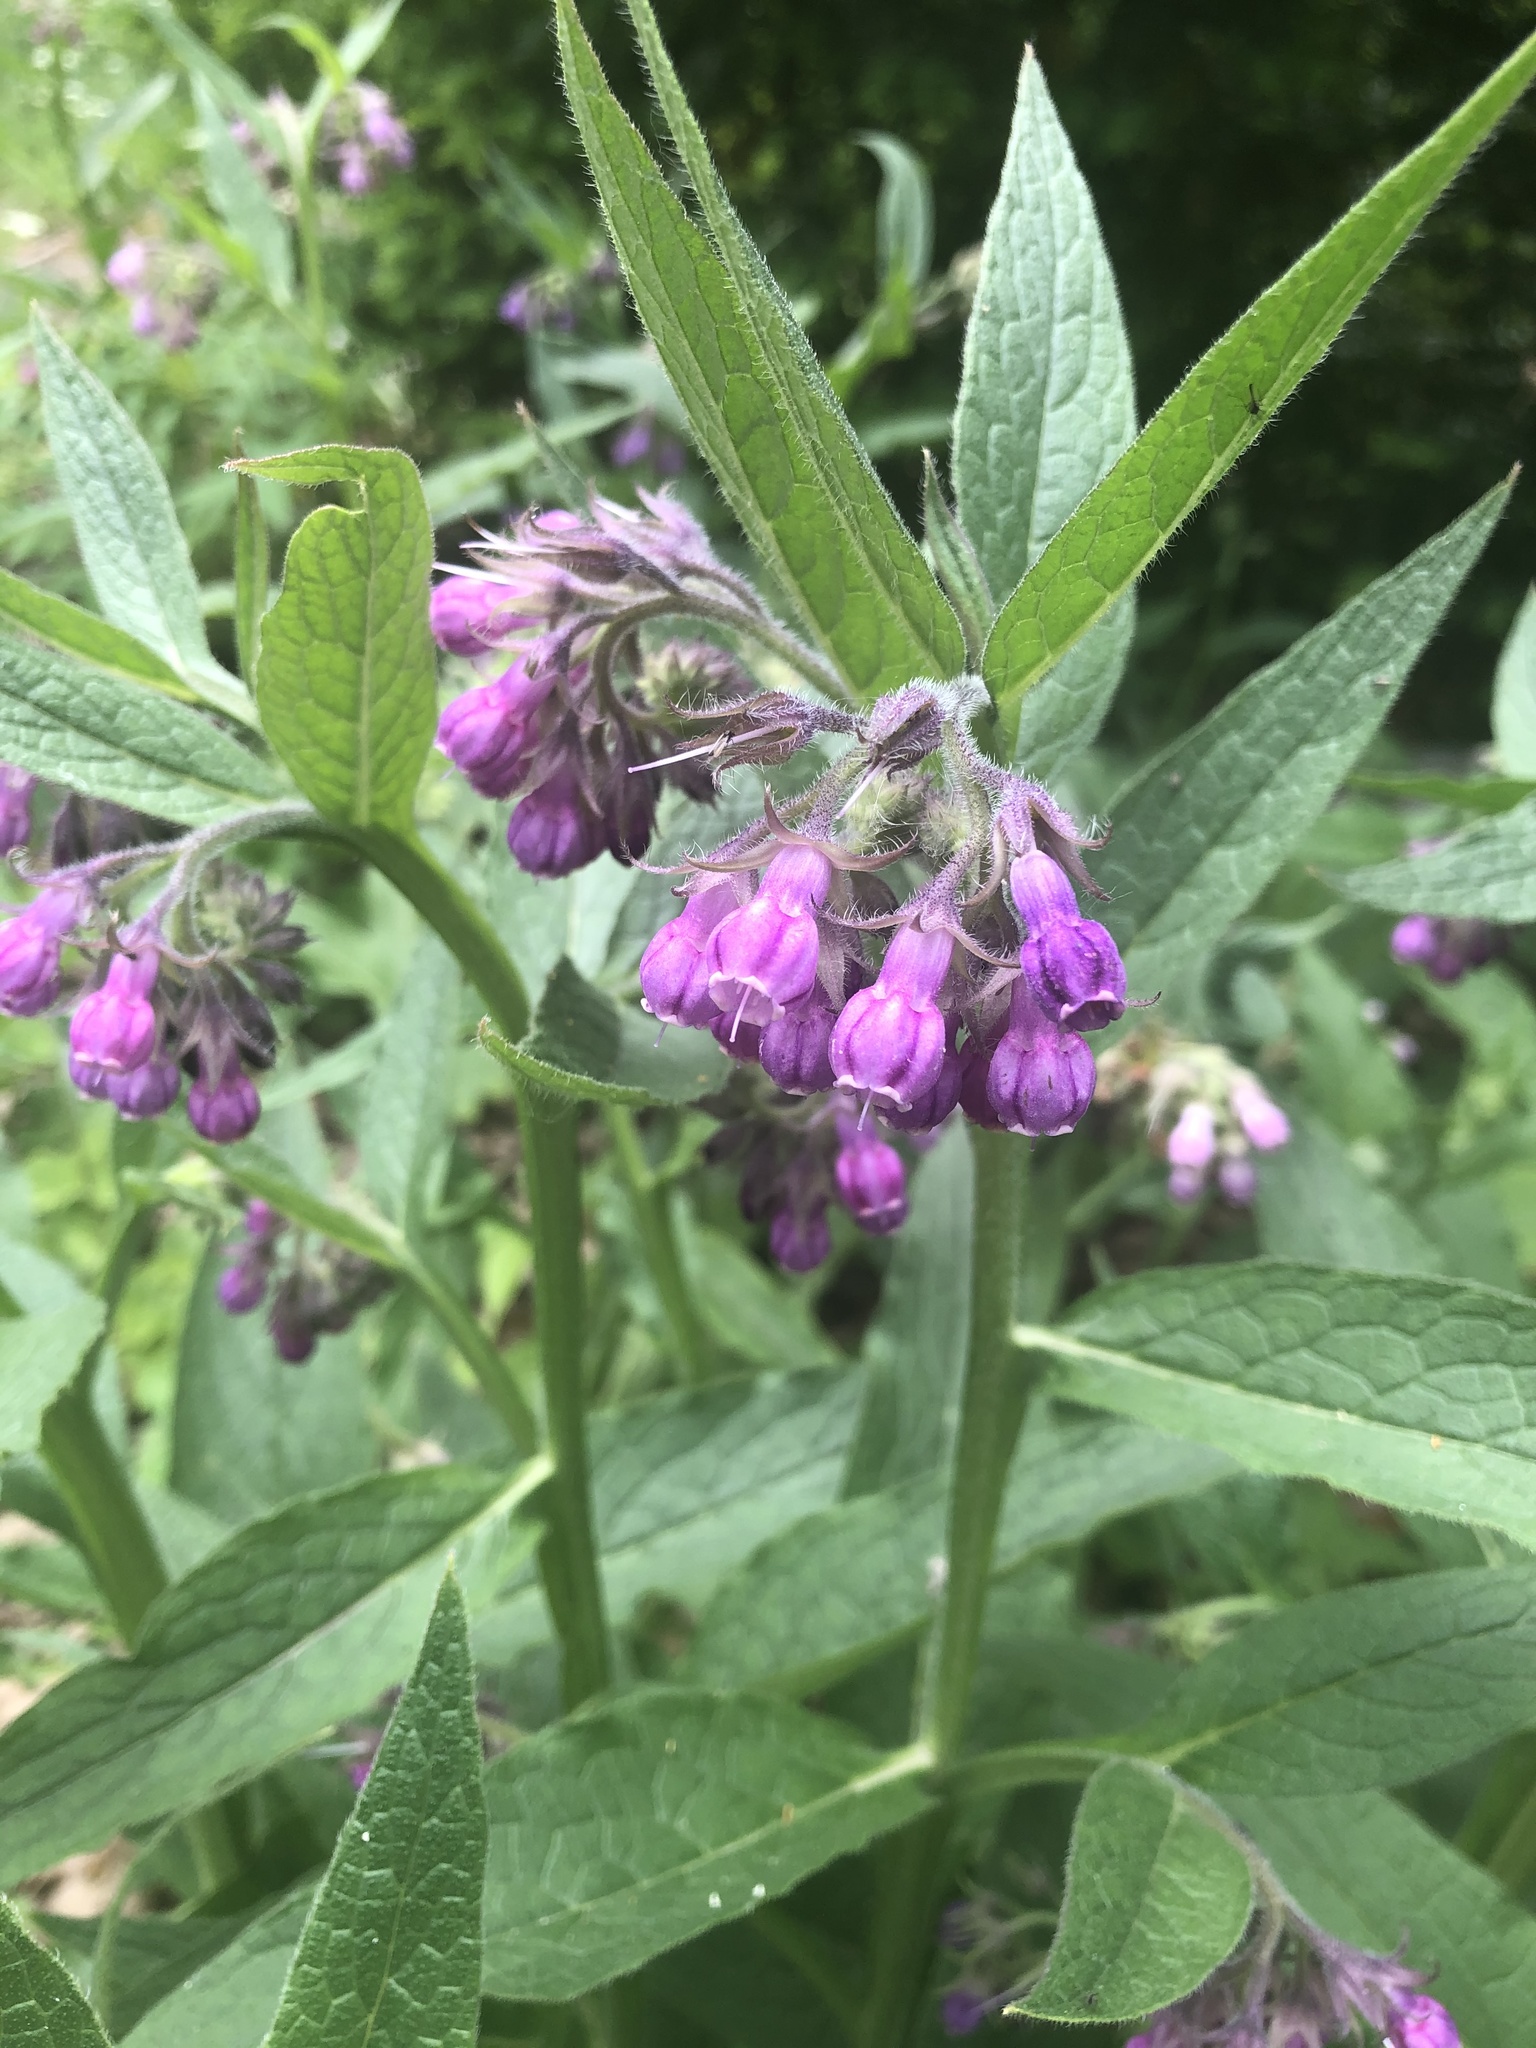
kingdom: Plantae
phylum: Tracheophyta
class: Magnoliopsida
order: Boraginales
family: Boraginaceae
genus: Symphytum
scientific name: Symphytum officinale
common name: Common comfrey
